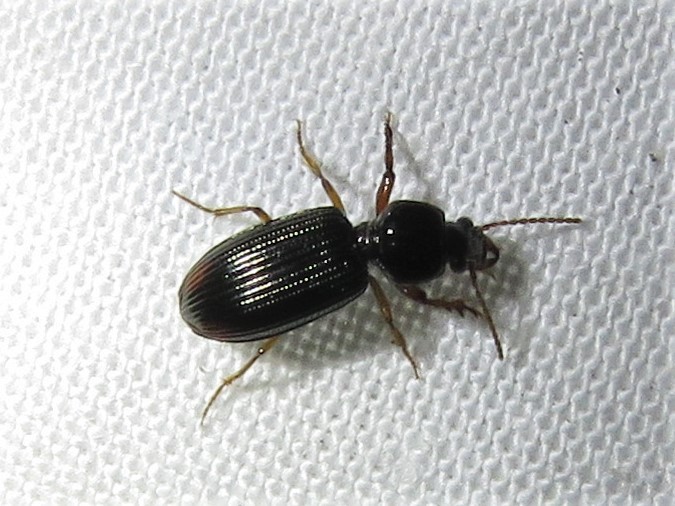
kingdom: Animalia
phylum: Arthropoda
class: Insecta
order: Coleoptera
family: Carabidae
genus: Aspidoglossa
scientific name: Aspidoglossa subangulata
